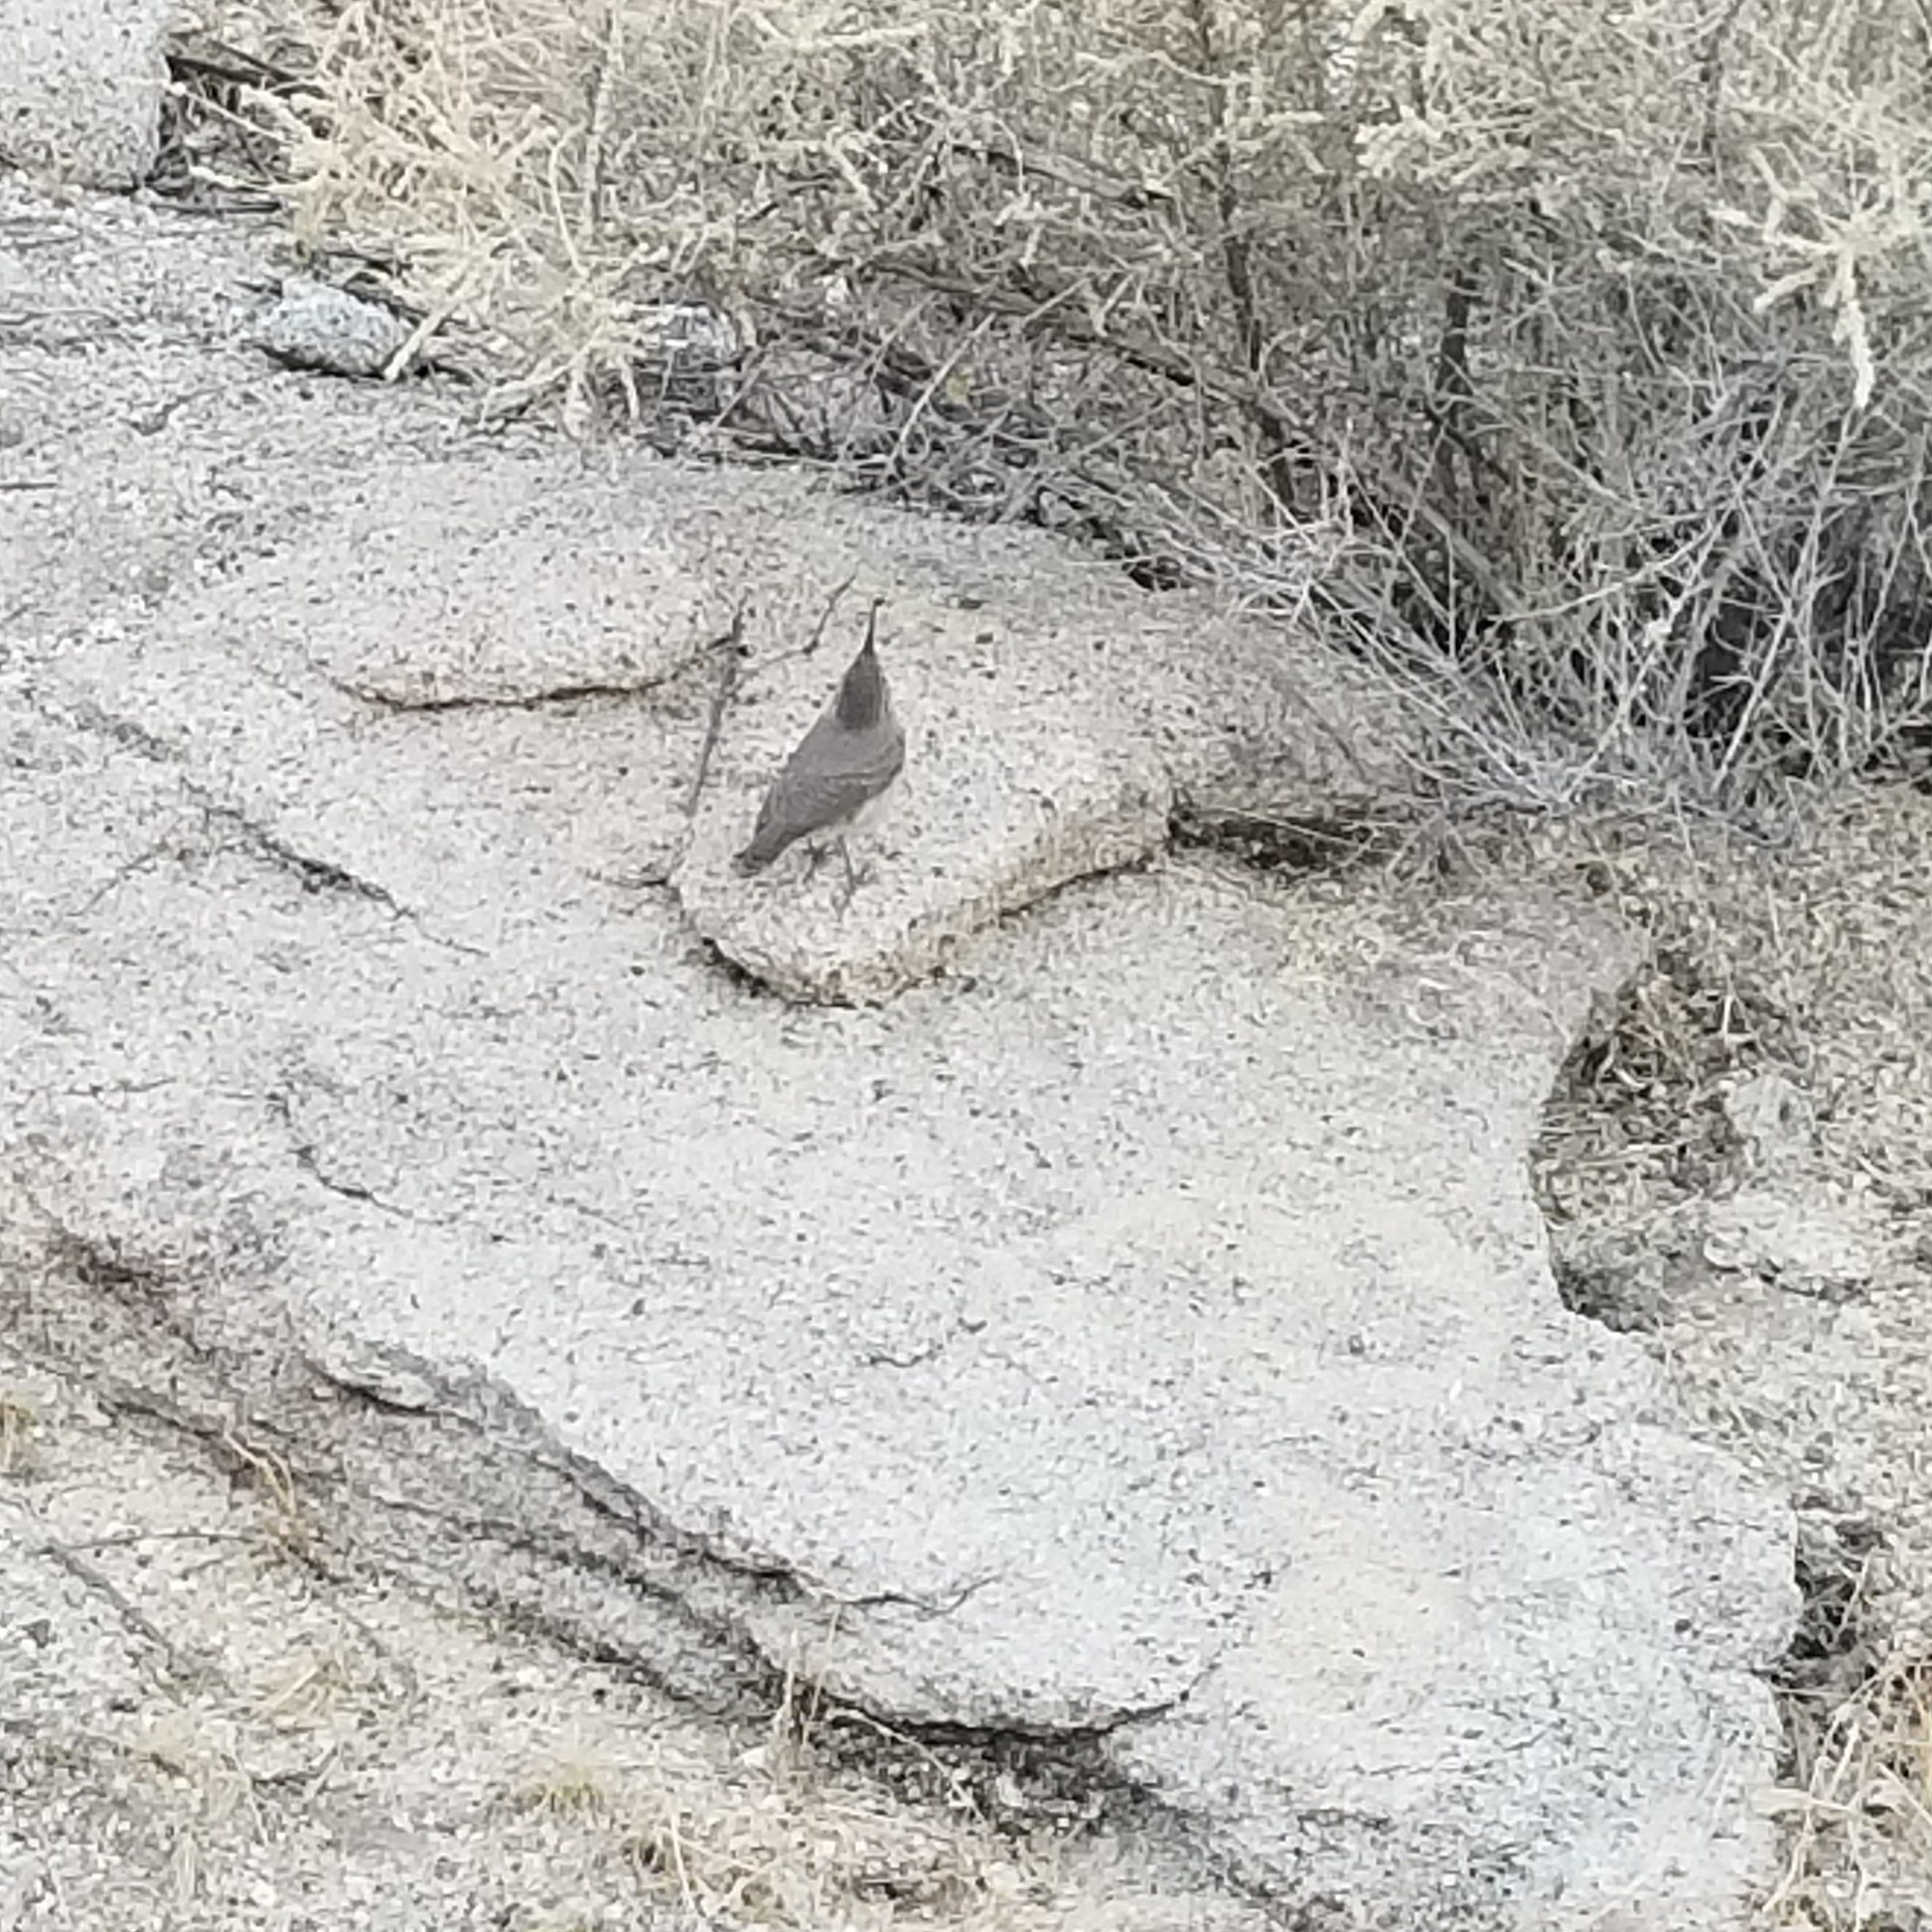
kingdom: Animalia
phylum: Chordata
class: Aves
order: Passeriformes
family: Troglodytidae
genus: Salpinctes
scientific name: Salpinctes obsoletus
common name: Rock wren
